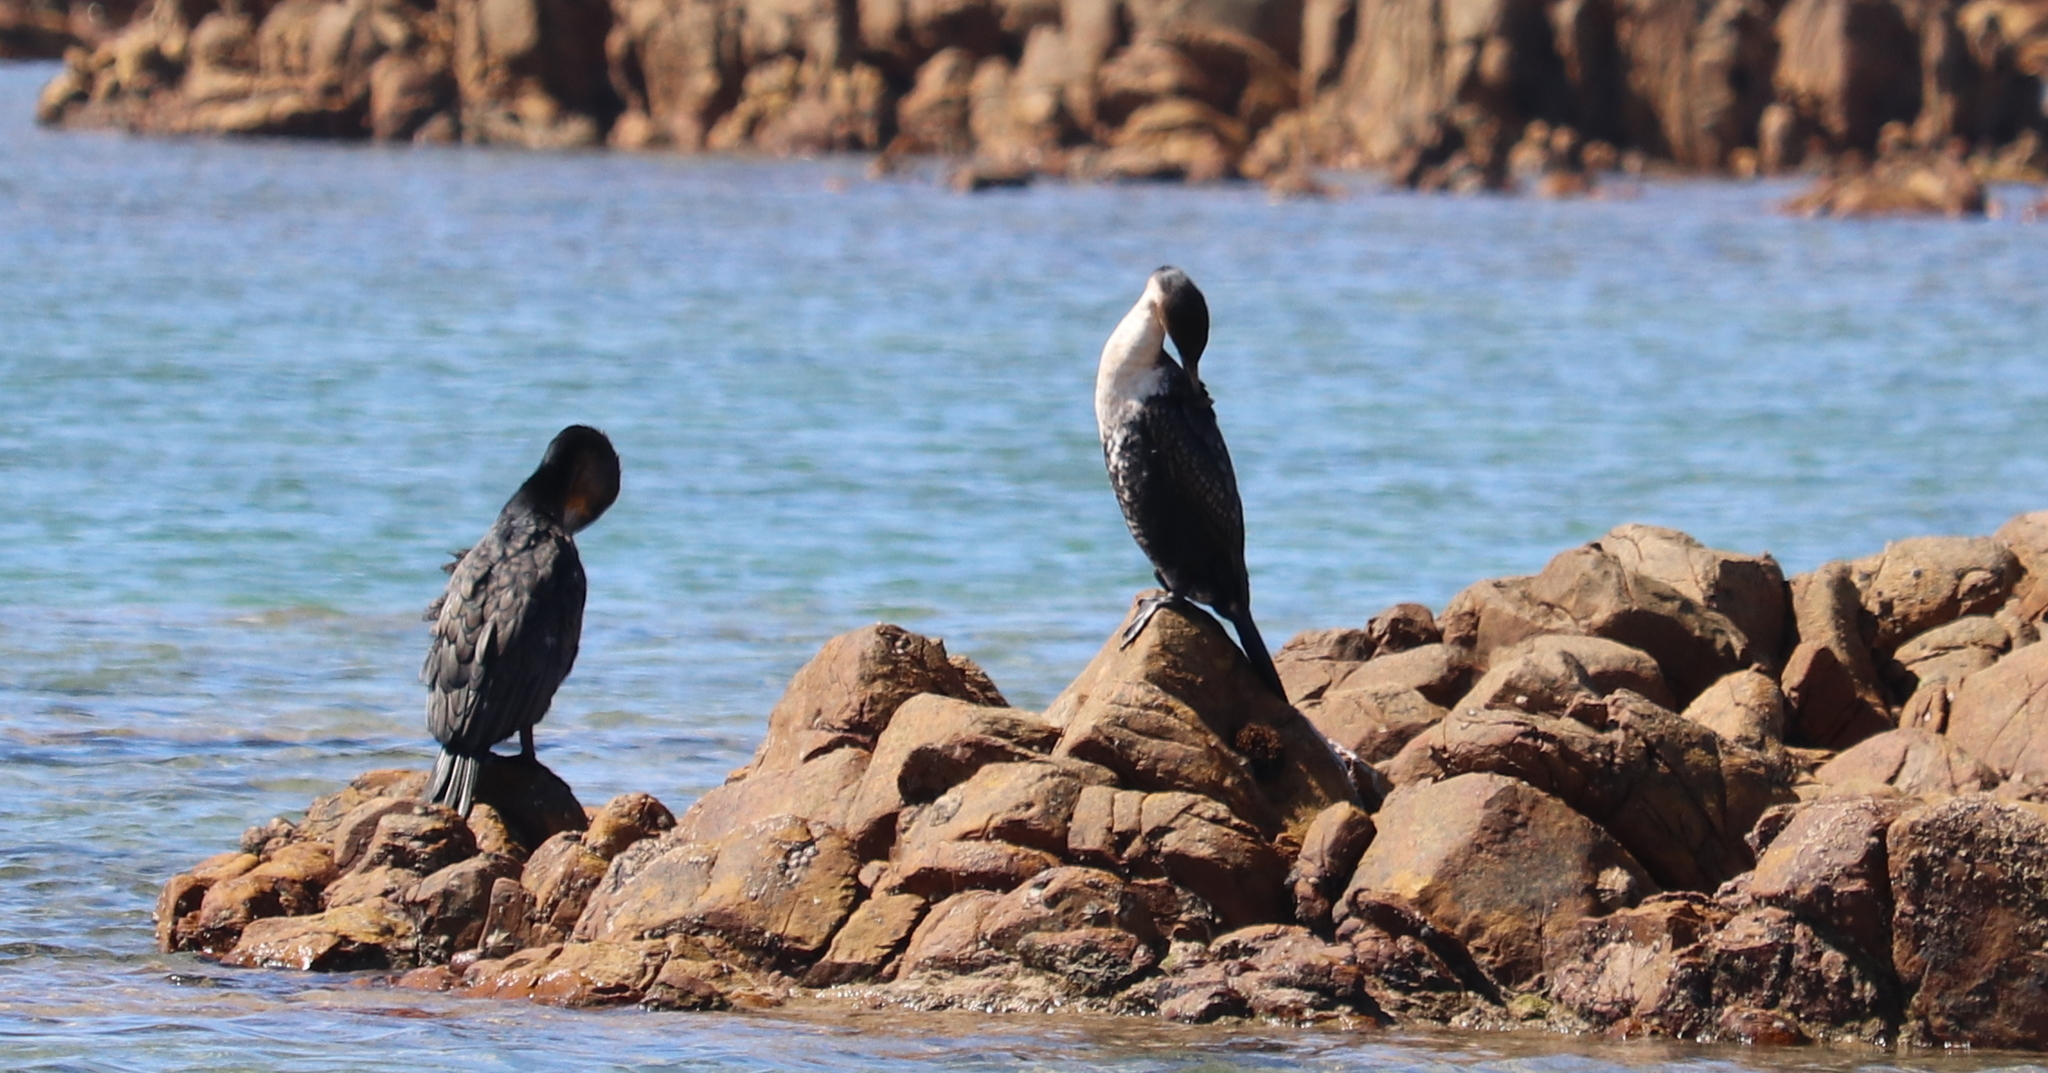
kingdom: Animalia
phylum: Chordata
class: Aves
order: Suliformes
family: Phalacrocoracidae
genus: Phalacrocorax
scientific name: Phalacrocorax carbo
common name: Great cormorant
